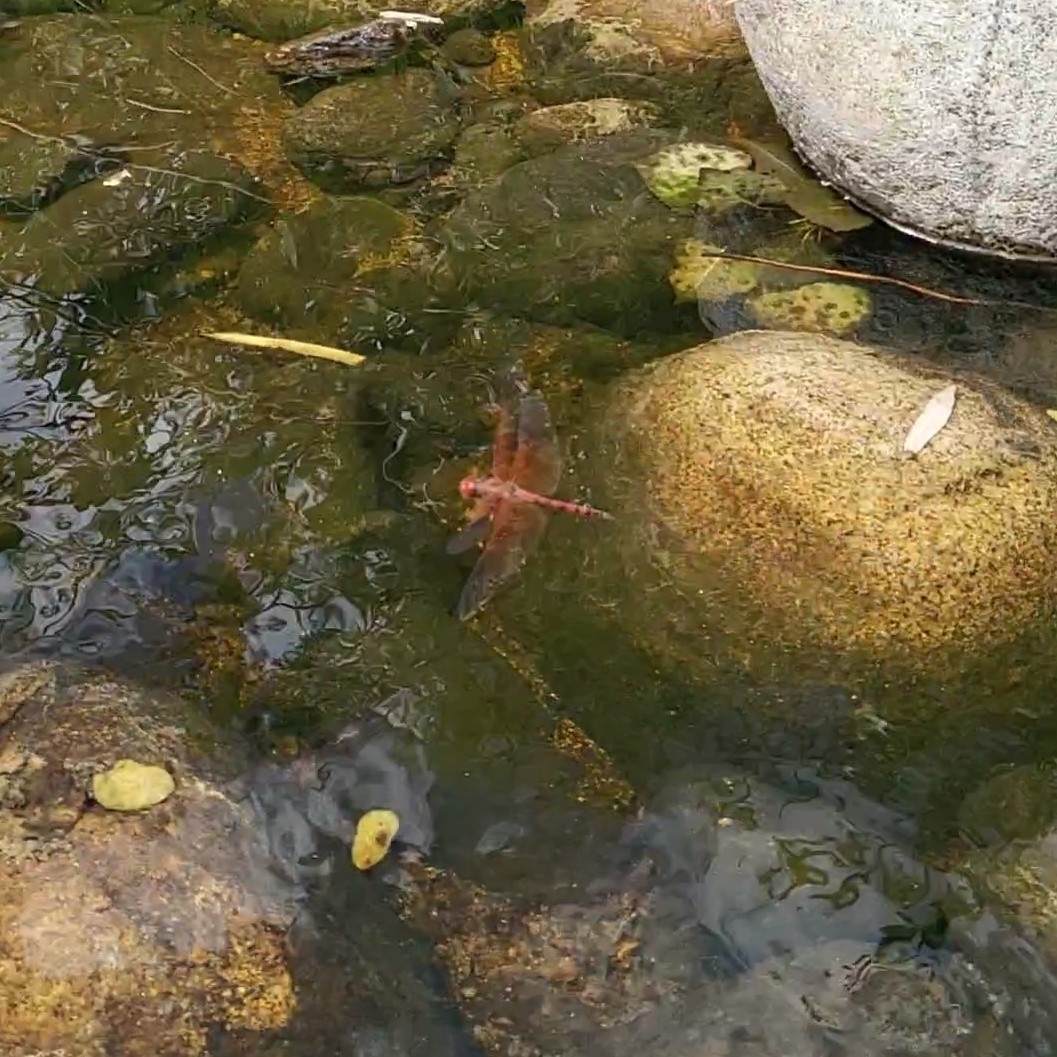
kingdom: Animalia
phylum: Arthropoda
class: Insecta
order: Odonata
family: Libellulidae
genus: Paltothemis
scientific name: Paltothemis lineatipes
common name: Red rock skimmer
